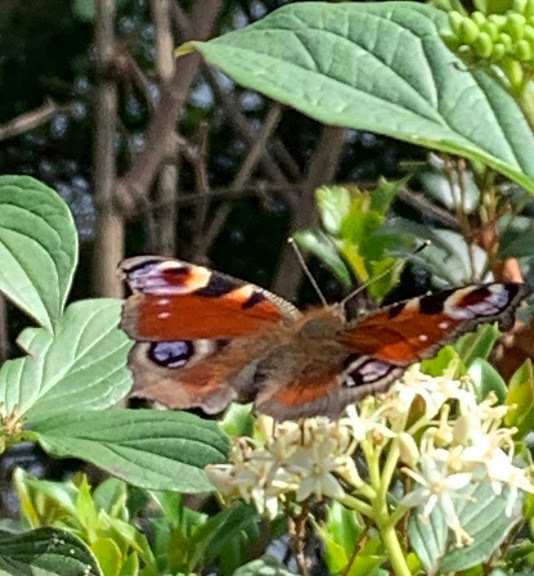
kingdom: Animalia
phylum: Arthropoda
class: Insecta
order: Lepidoptera
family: Nymphalidae
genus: Aglais
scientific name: Aglais io
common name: Peacock
